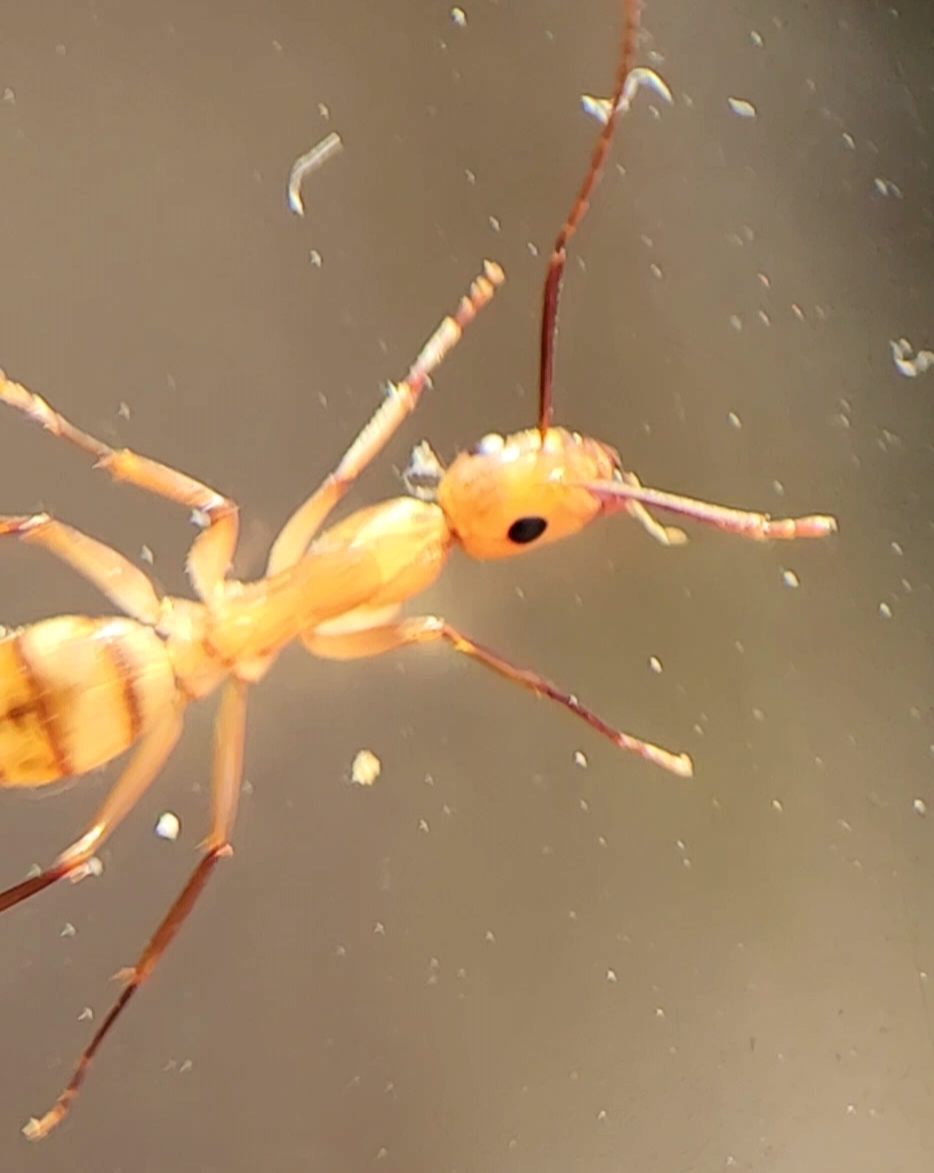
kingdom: Animalia
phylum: Arthropoda
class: Insecta
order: Hymenoptera
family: Formicidae
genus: Camponotus
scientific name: Camponotus
